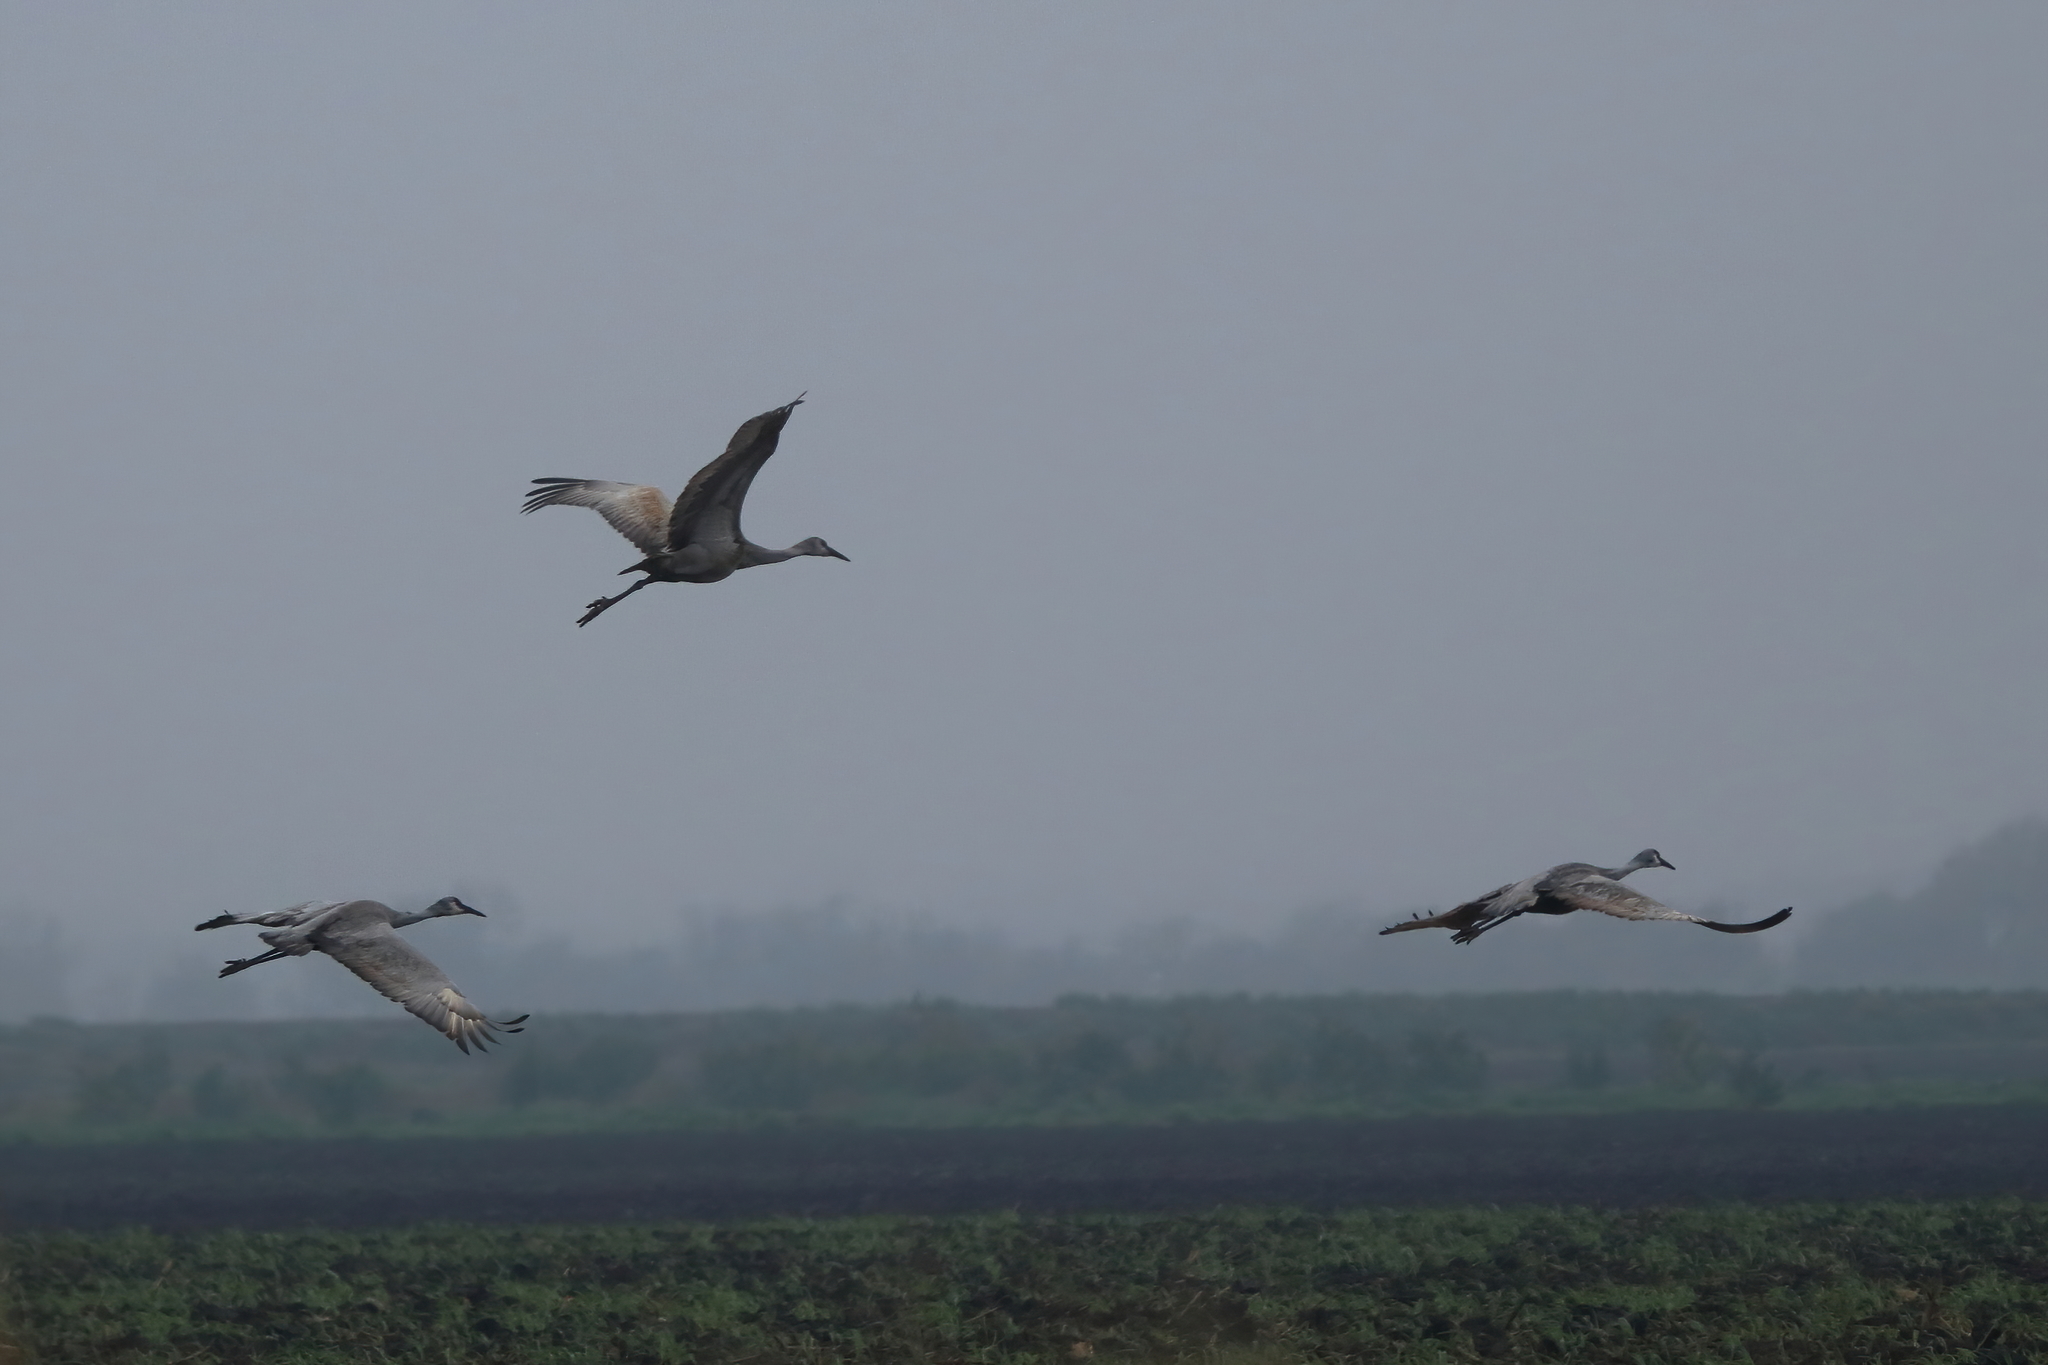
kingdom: Animalia
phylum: Chordata
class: Aves
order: Gruiformes
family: Gruidae
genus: Grus
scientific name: Grus canadensis
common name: Sandhill crane
